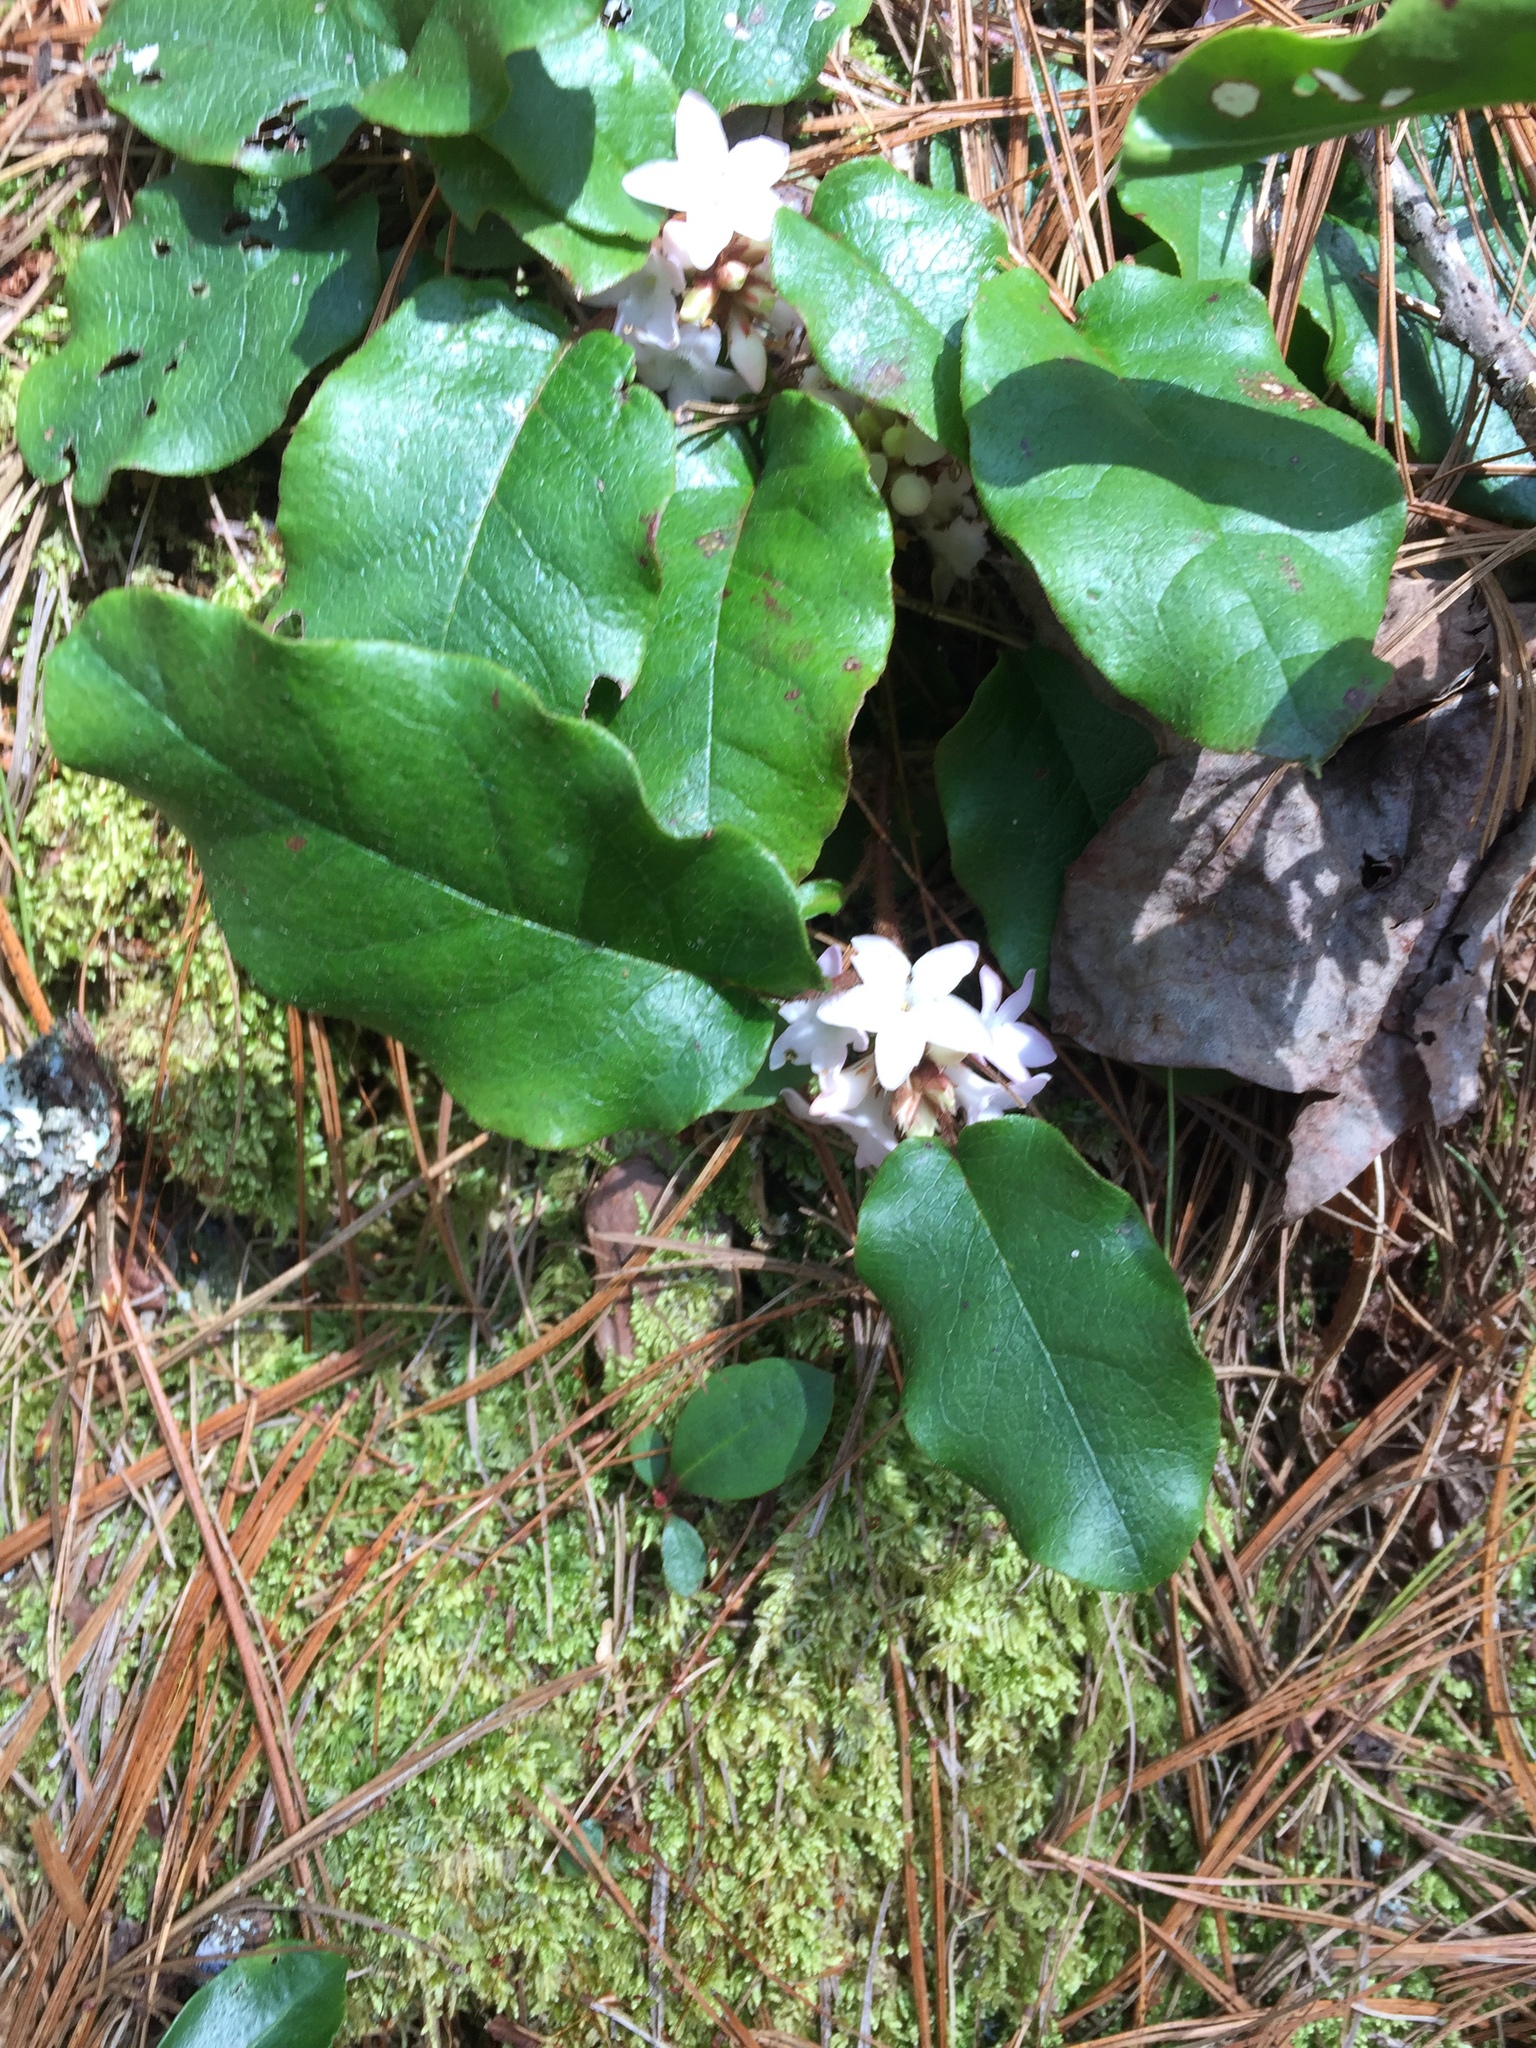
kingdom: Plantae
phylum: Tracheophyta
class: Magnoliopsida
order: Ericales
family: Ericaceae
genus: Epigaea
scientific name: Epigaea repens
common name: Gravelroot
